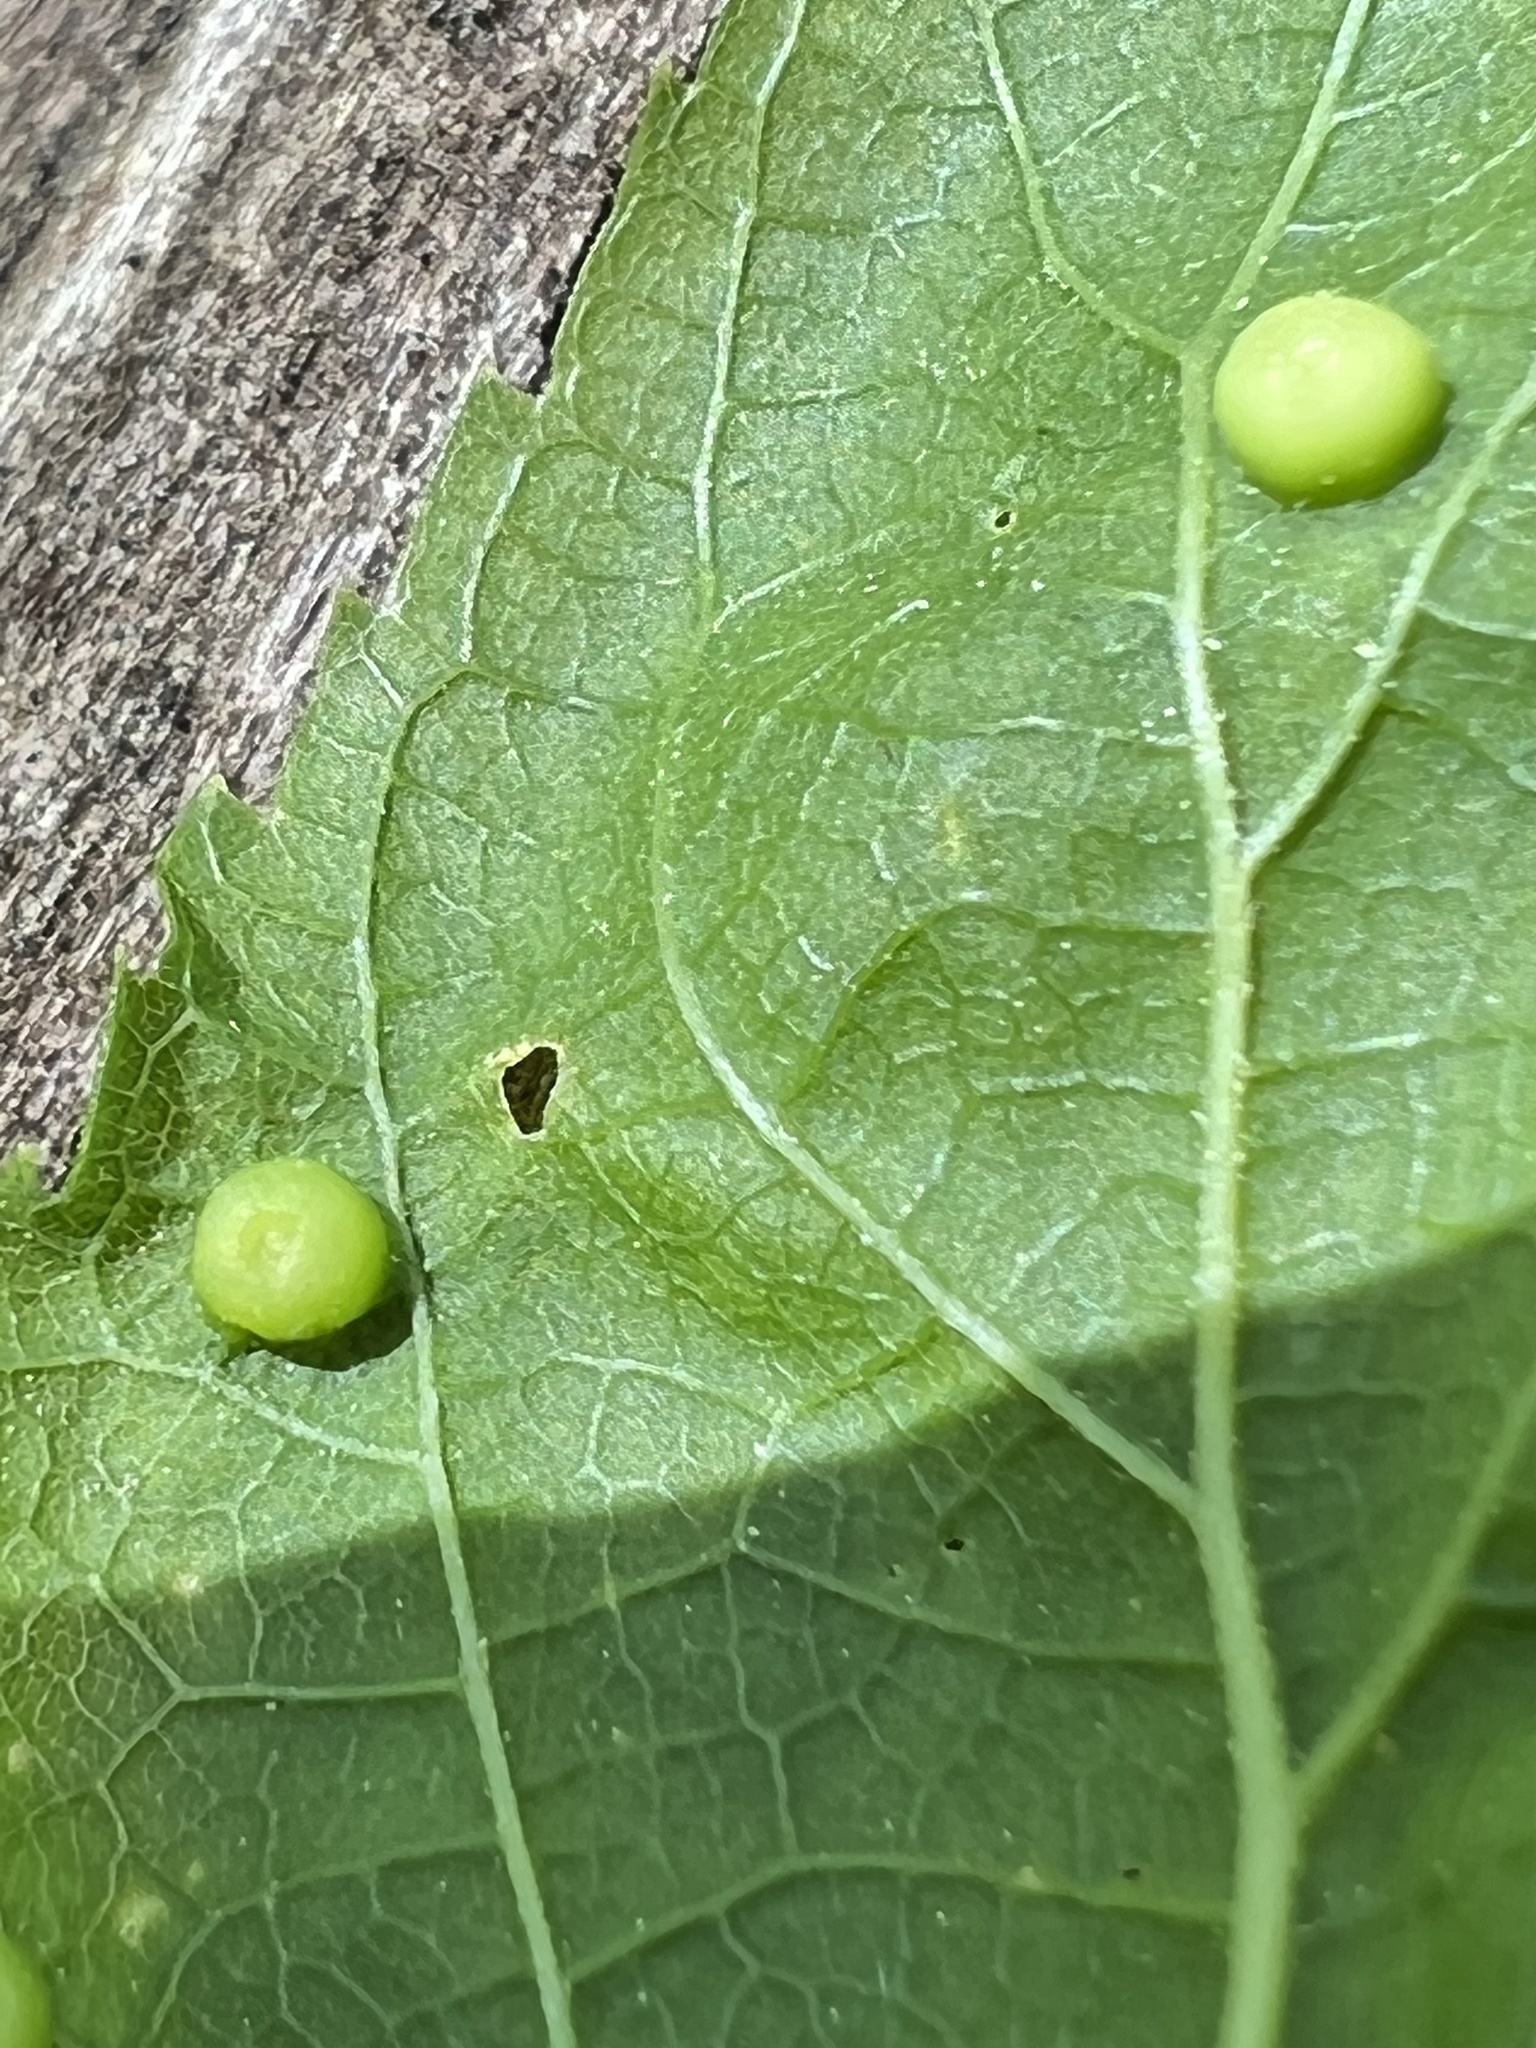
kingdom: Animalia
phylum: Arthropoda
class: Insecta
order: Hemiptera
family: Aphalaridae
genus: Pachypsylla
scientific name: Pachypsylla celtidismamma
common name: Hackberry nipplegall psyllid
